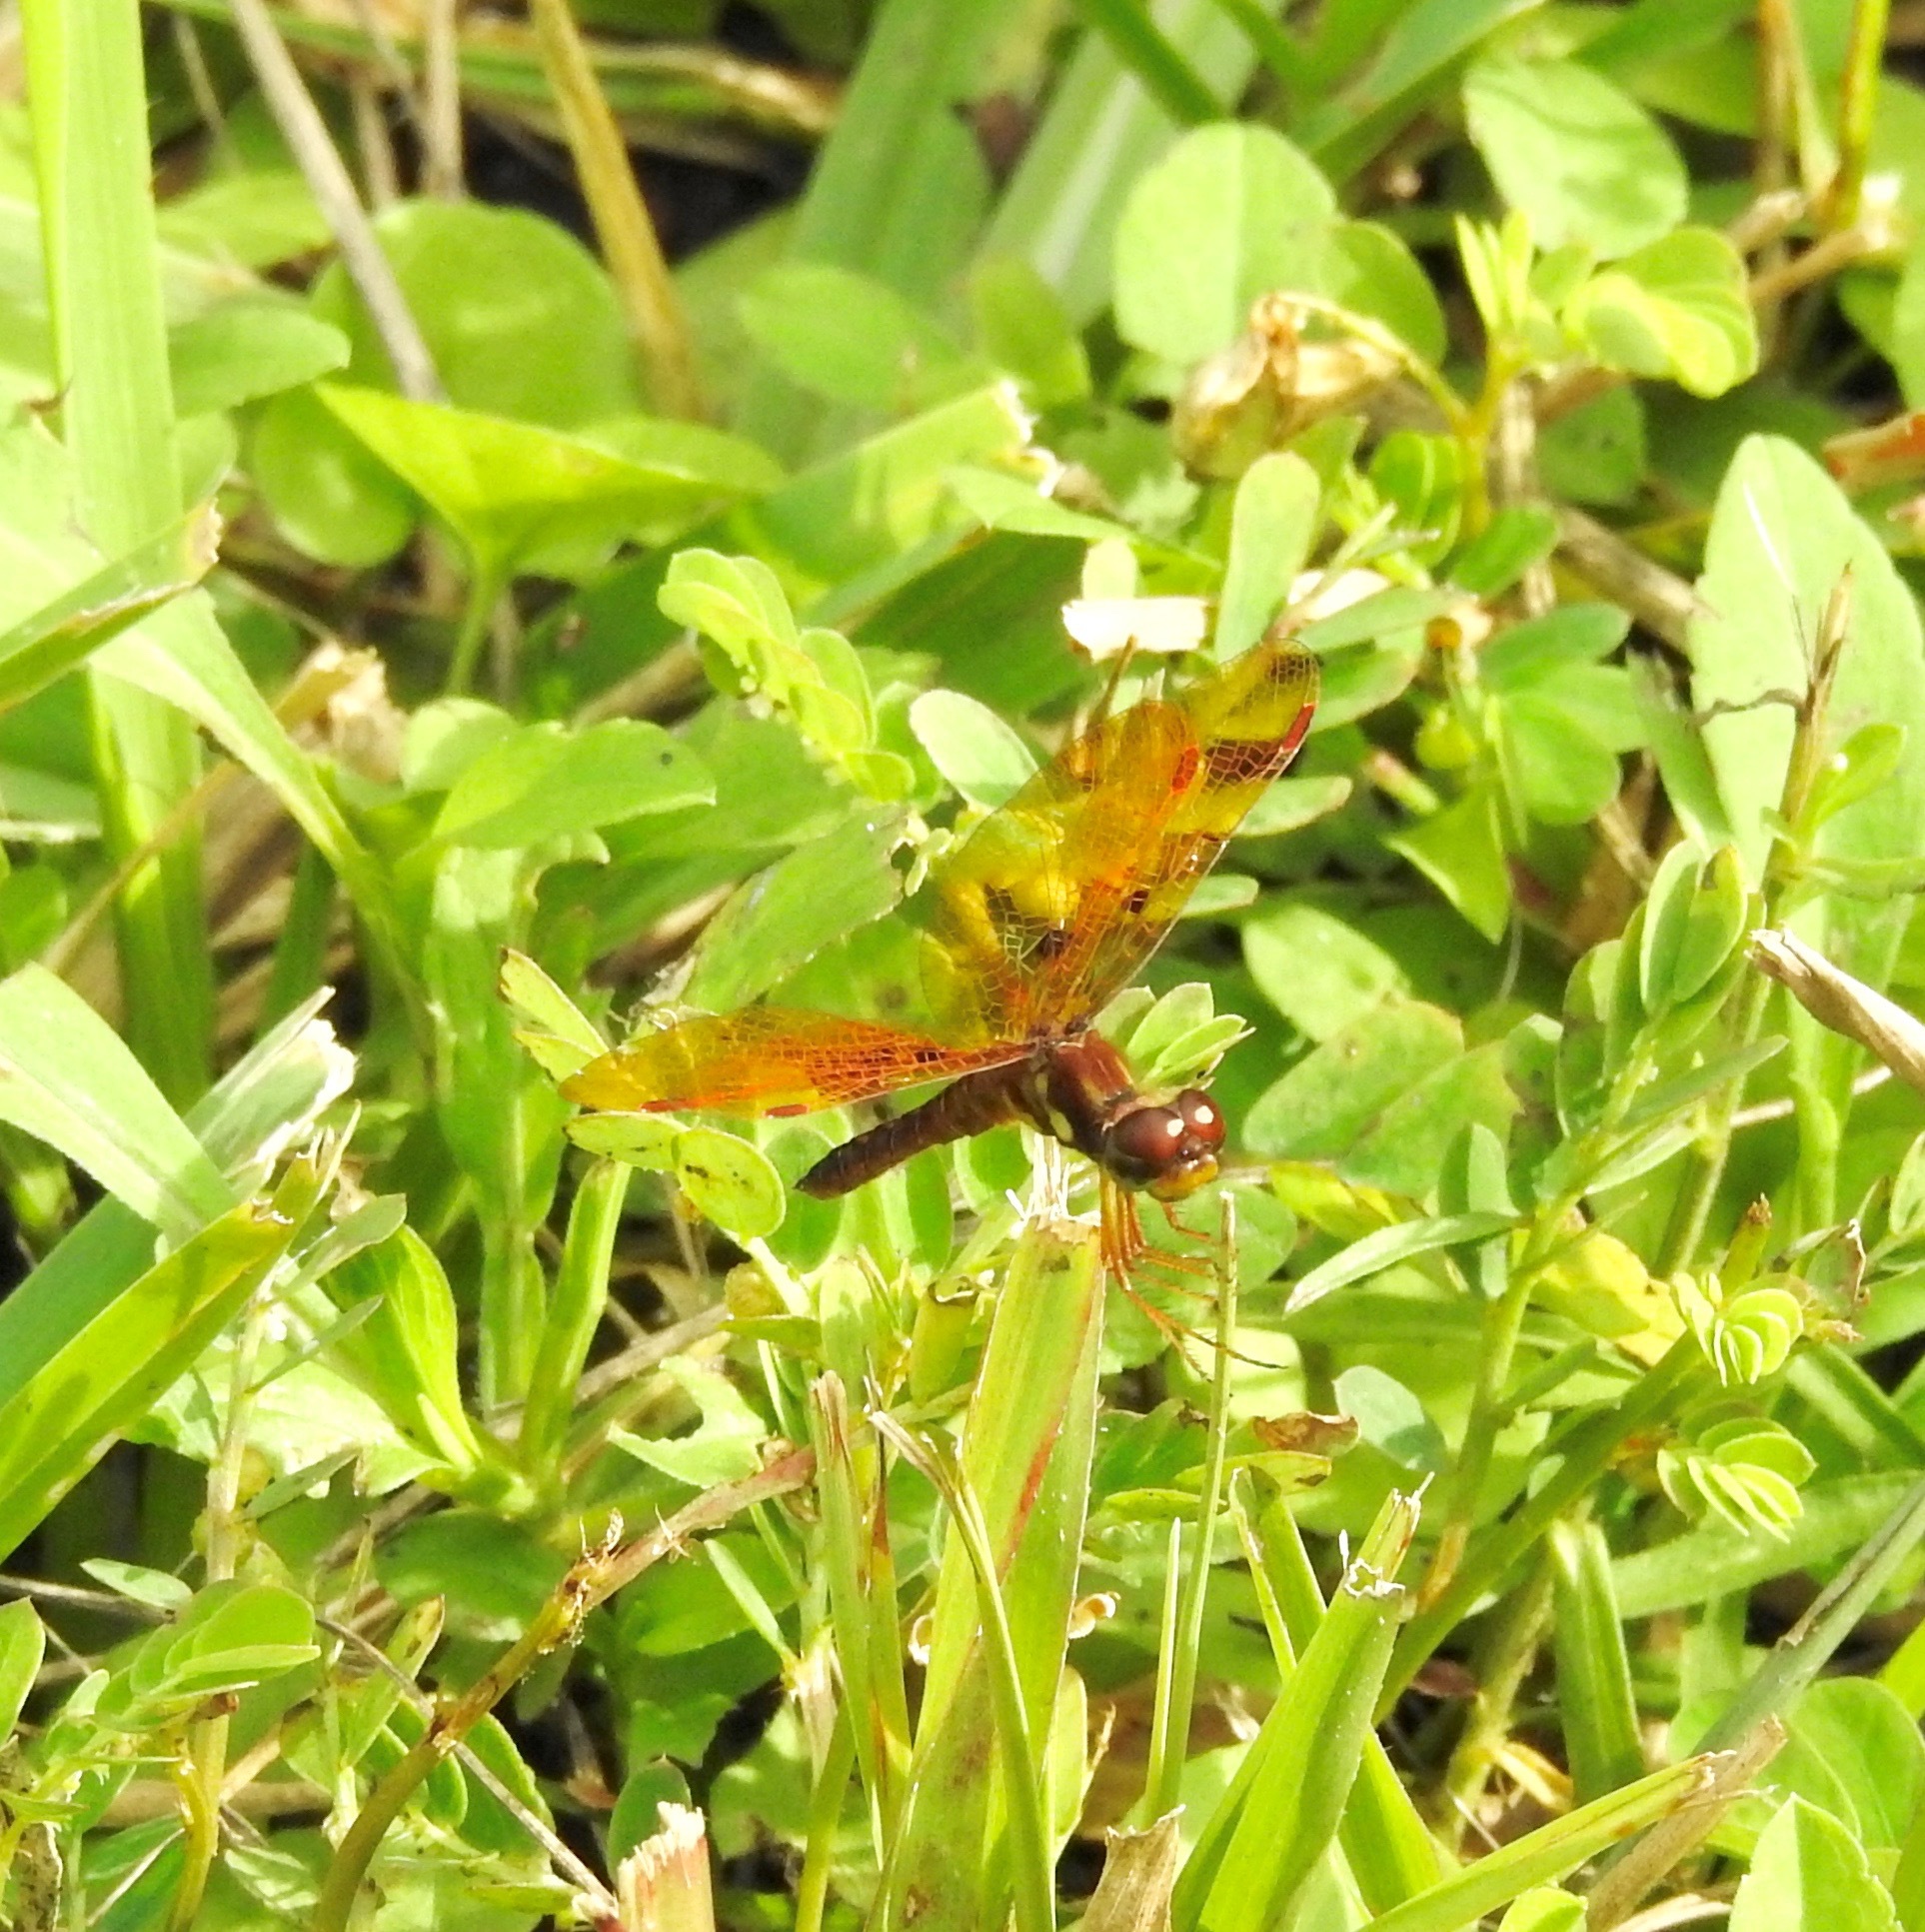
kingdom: Animalia
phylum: Arthropoda
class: Insecta
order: Odonata
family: Libellulidae
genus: Perithemis
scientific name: Perithemis tenera
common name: Eastern amberwing
